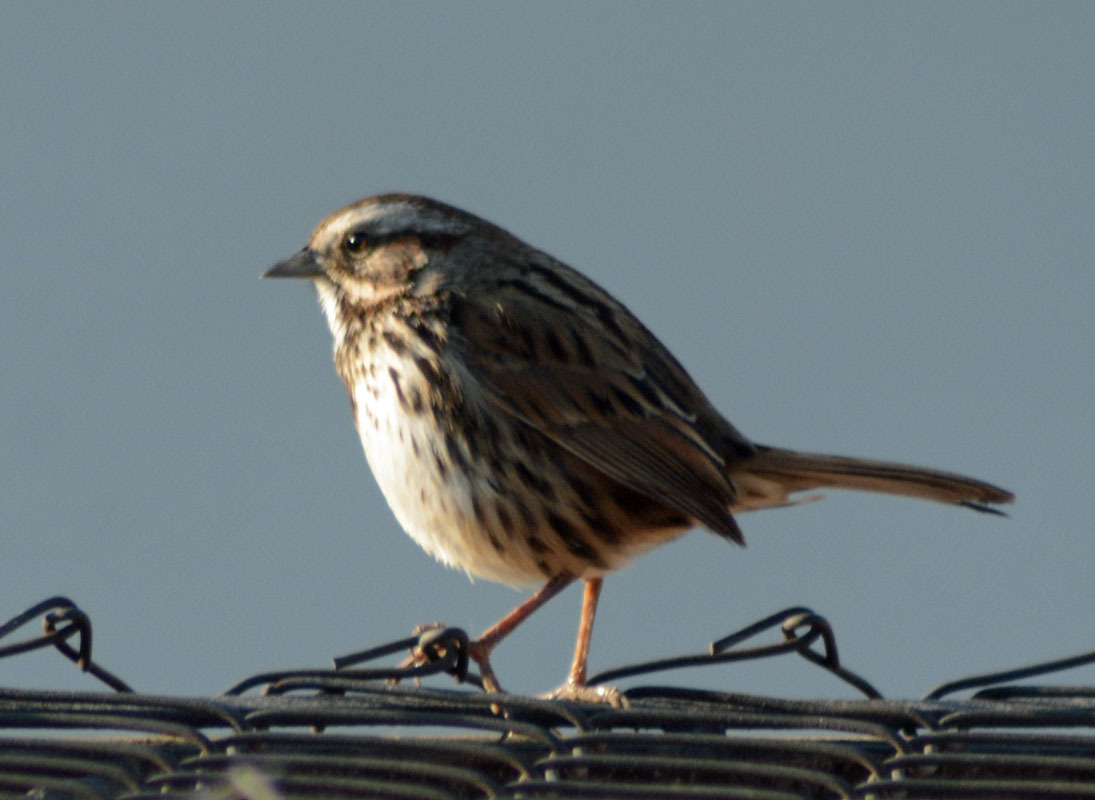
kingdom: Animalia
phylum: Chordata
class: Aves
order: Passeriformes
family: Passerellidae
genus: Melospiza
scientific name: Melospiza melodia
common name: Song sparrow
